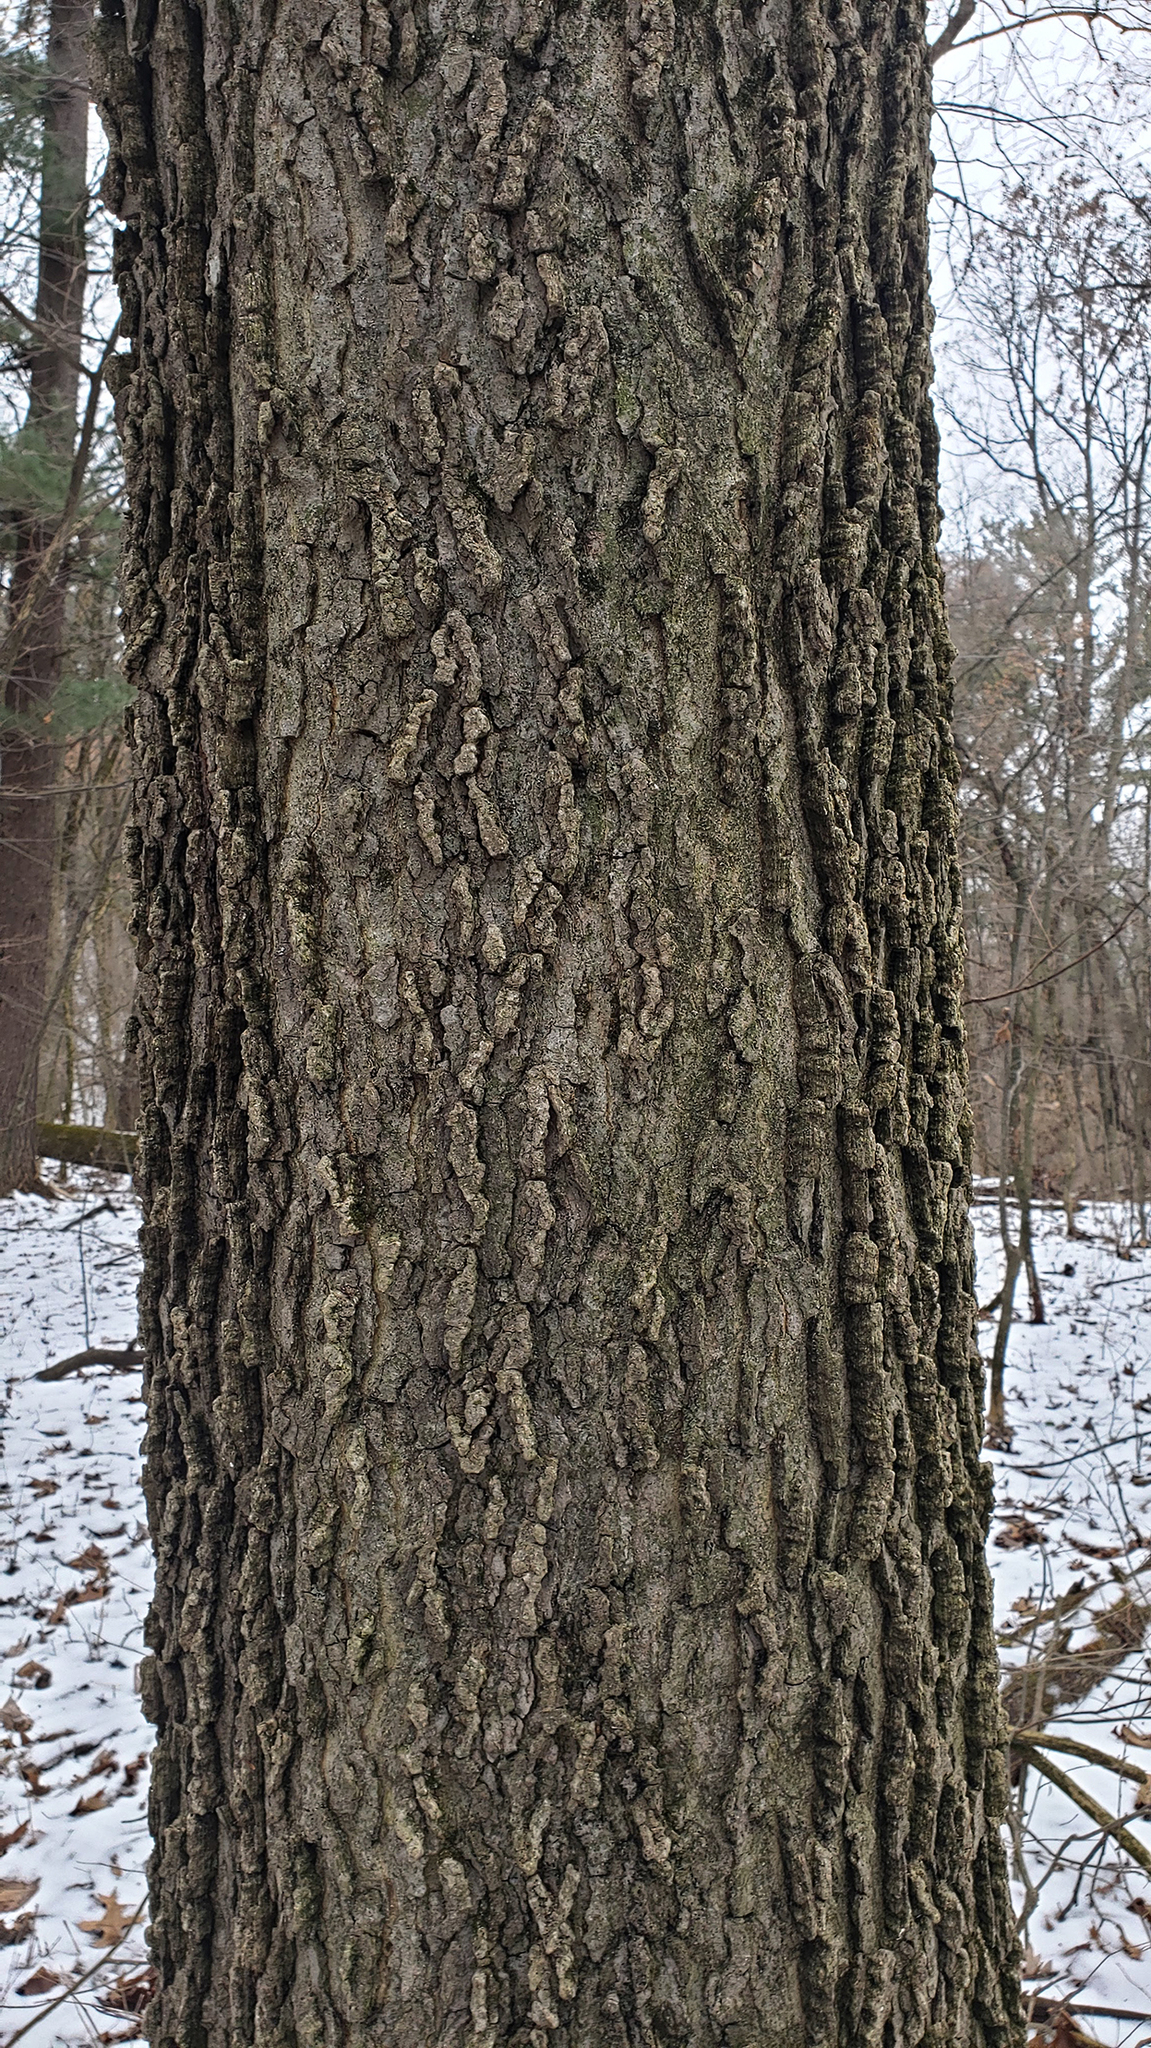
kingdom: Plantae
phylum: Tracheophyta
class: Magnoliopsida
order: Rosales
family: Cannabaceae
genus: Celtis
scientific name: Celtis occidentalis
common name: Common hackberry
